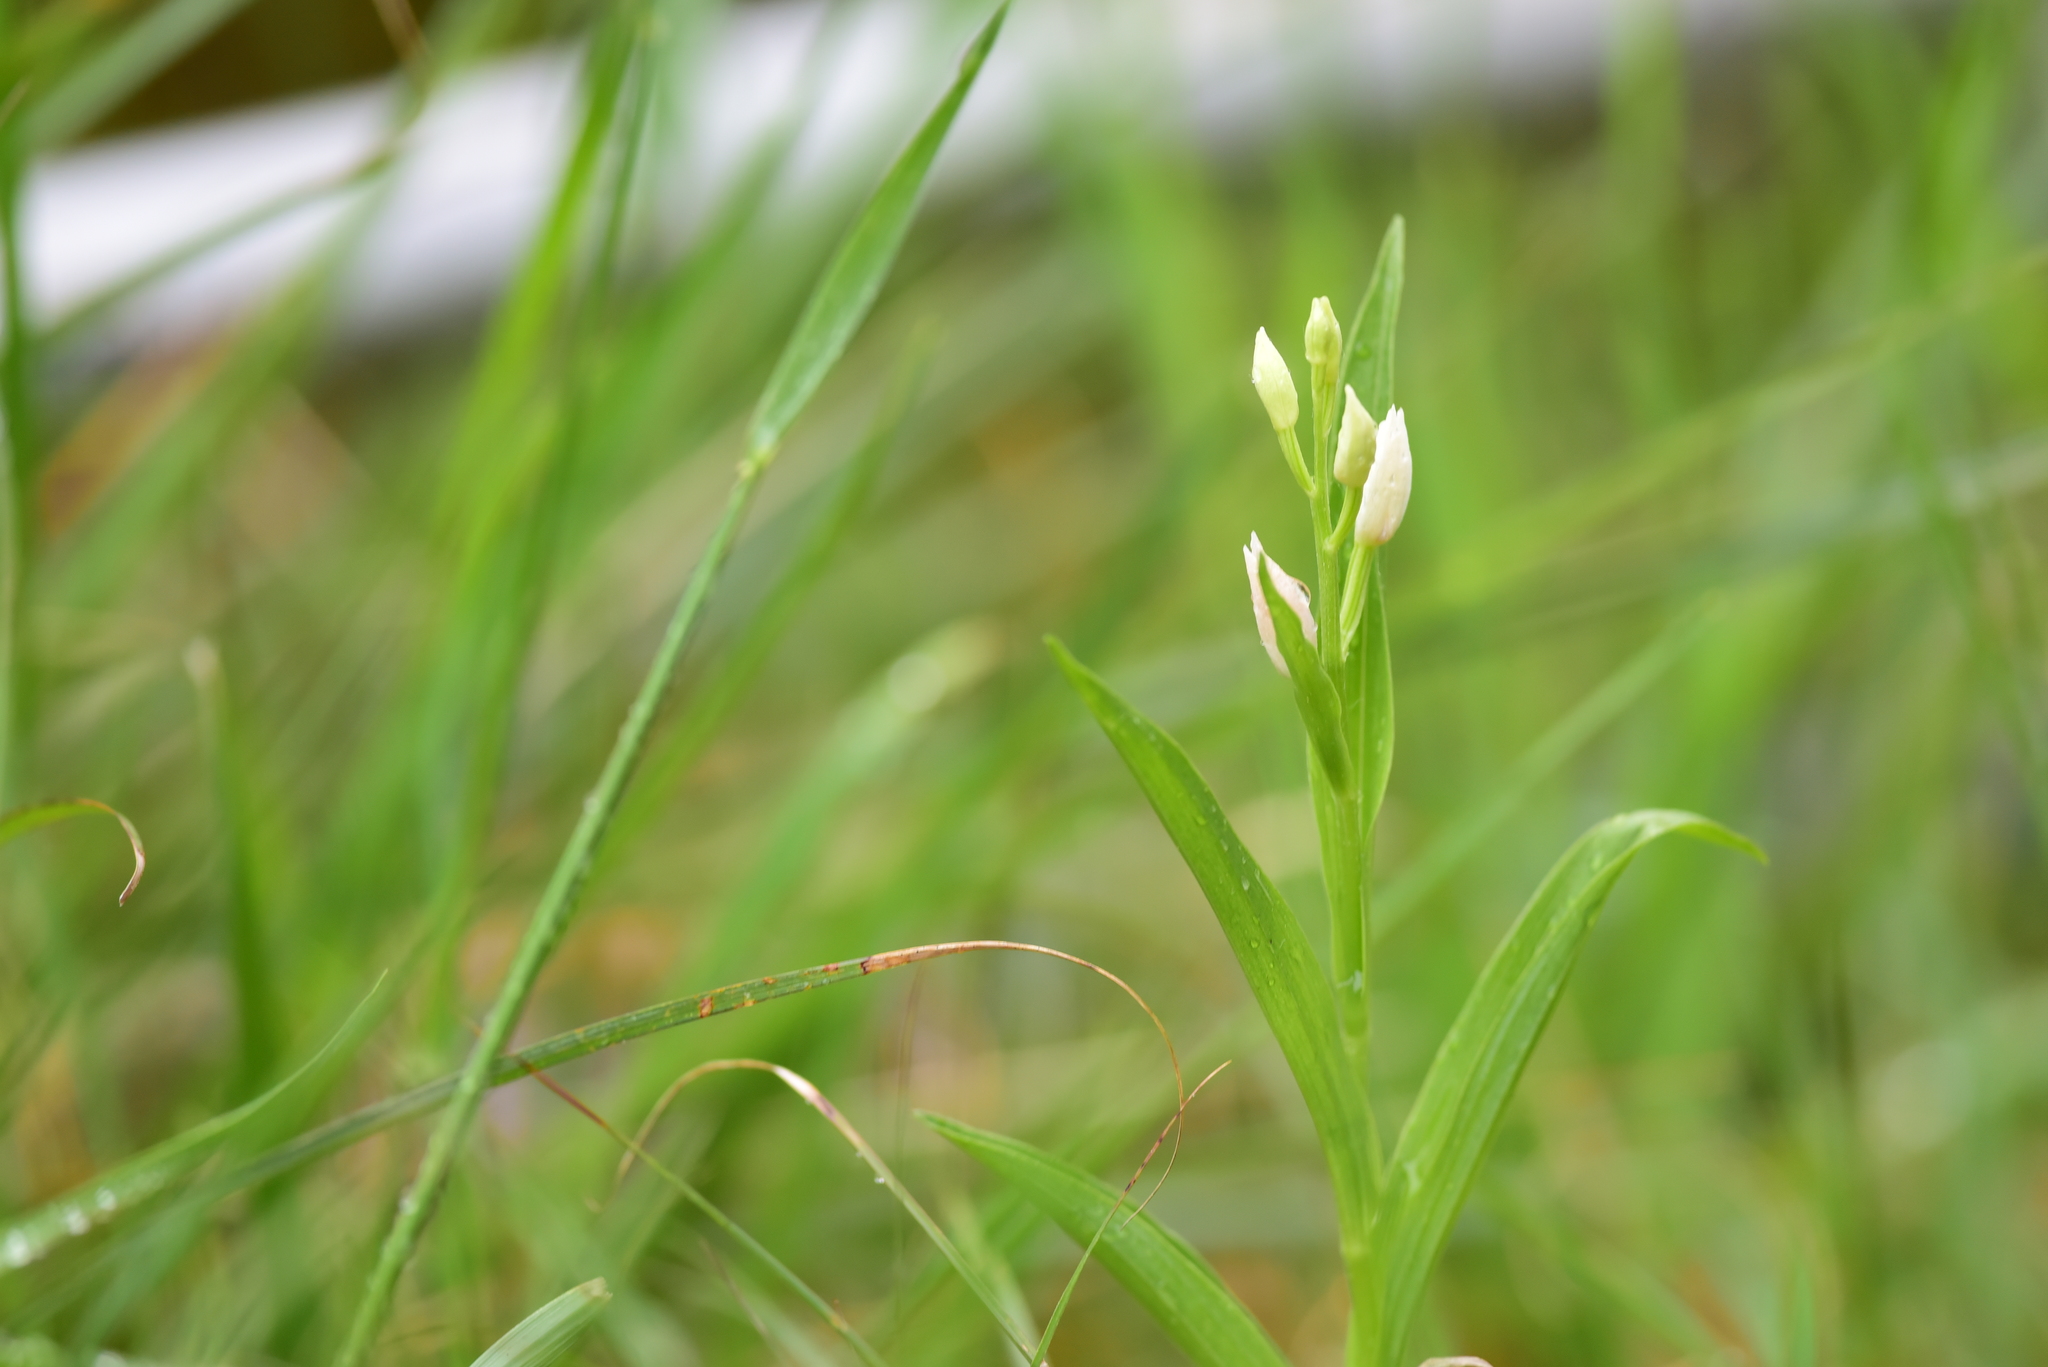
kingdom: Plantae
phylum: Tracheophyta
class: Liliopsida
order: Asparagales
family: Orchidaceae
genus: Cephalanthera
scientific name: Cephalanthera longifolia
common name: Narrow-leaved helleborine
